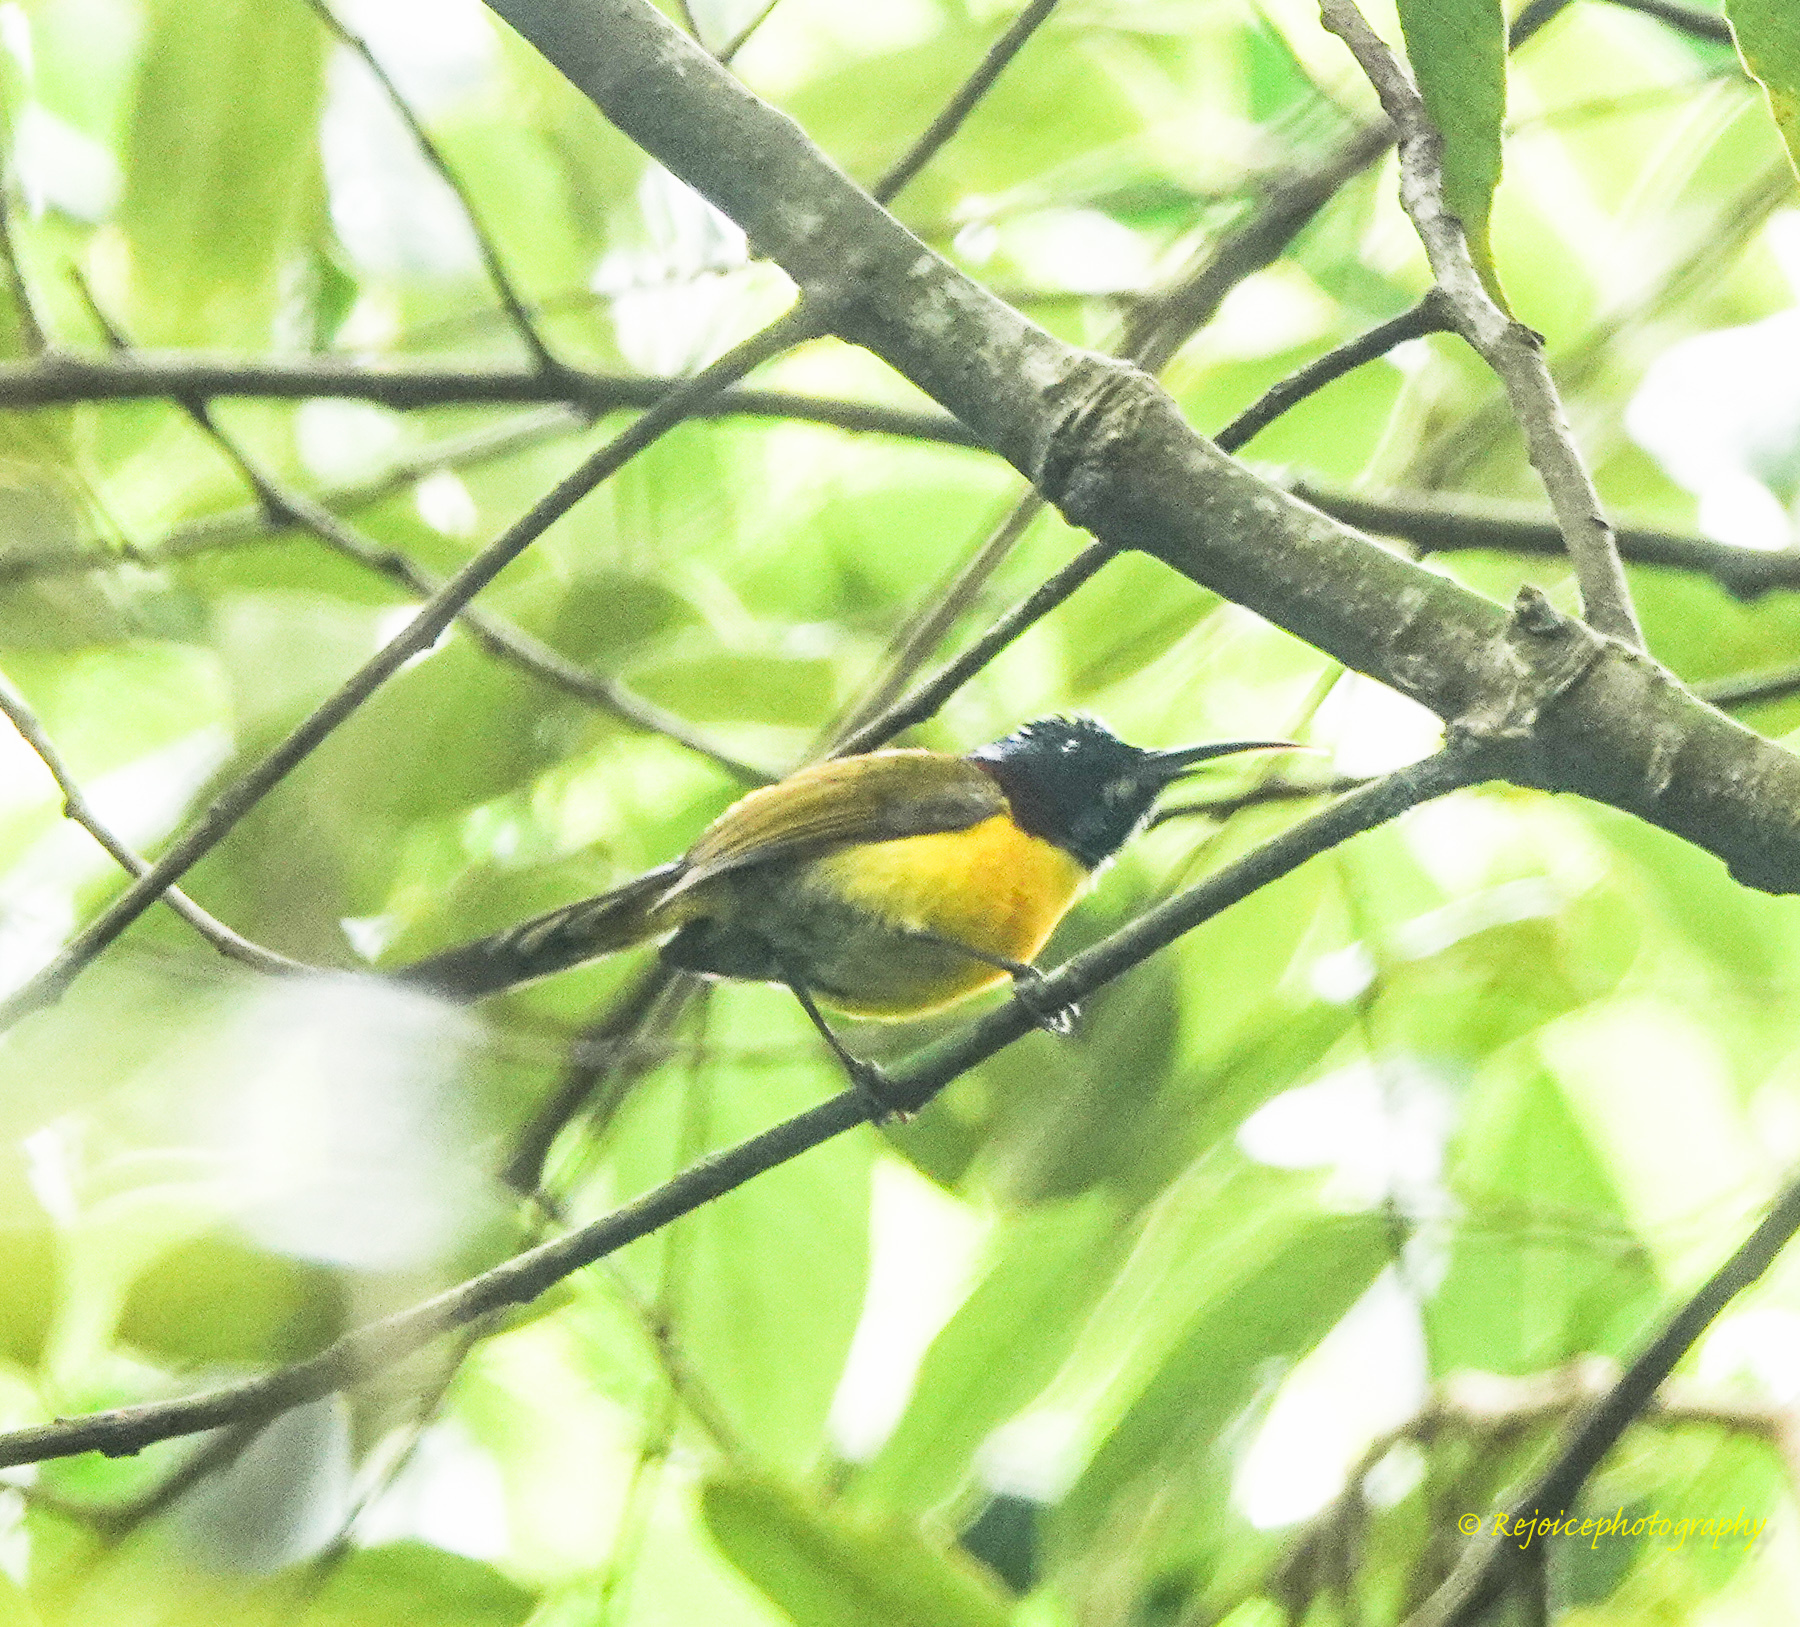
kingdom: Animalia
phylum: Chordata
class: Aves
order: Passeriformes
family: Nectariniidae
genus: Aethopyga
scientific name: Aethopyga nipalensis
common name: Green-tailed sunbird
